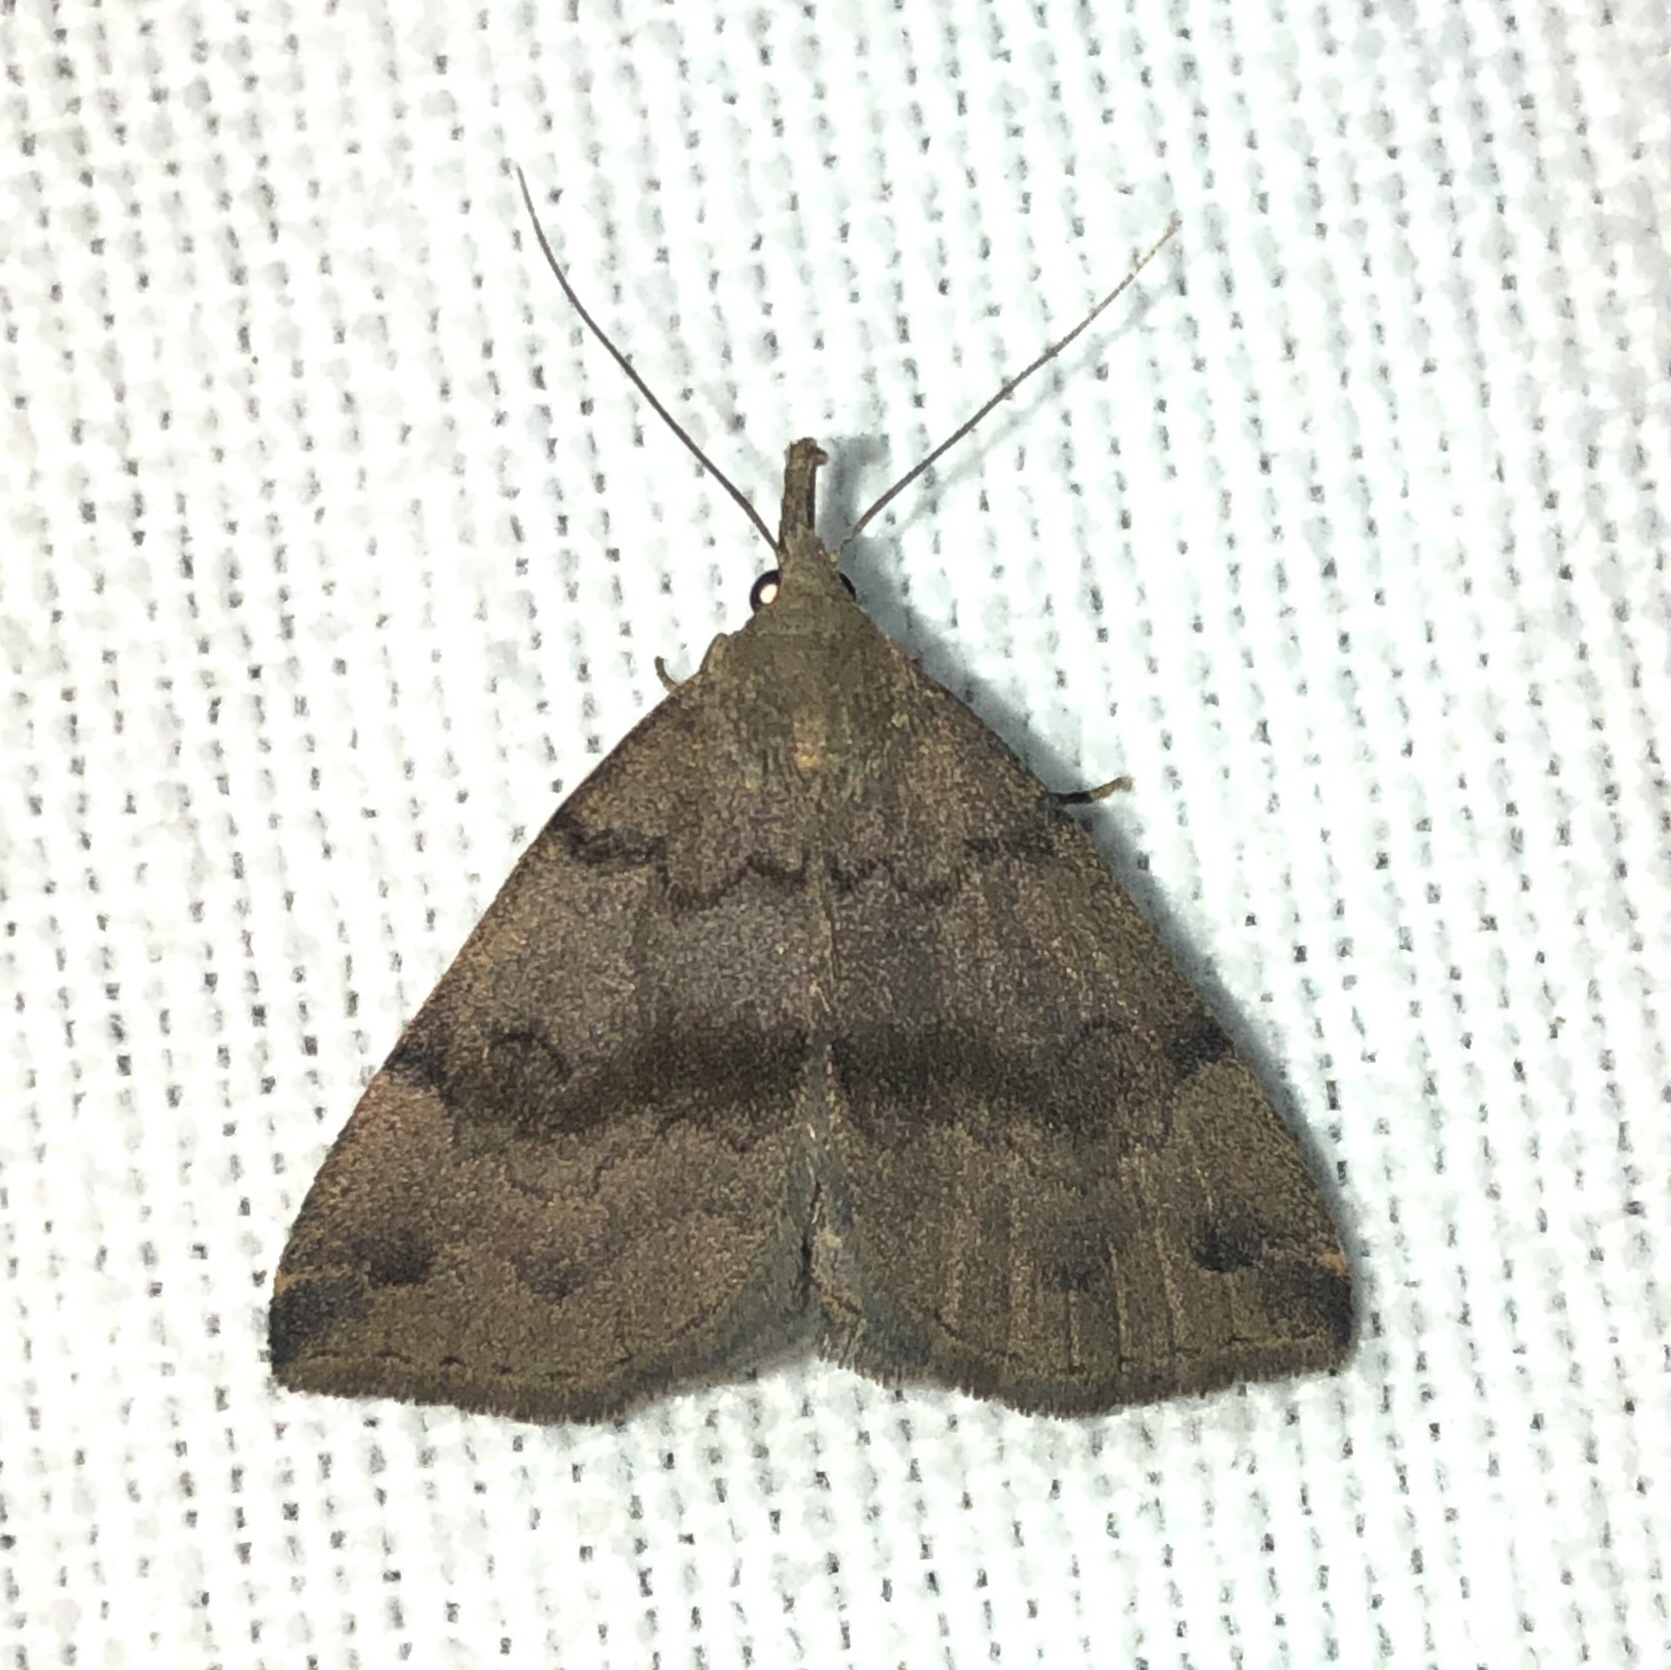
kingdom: Animalia
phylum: Arthropoda
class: Insecta
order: Lepidoptera
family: Erebidae
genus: Phalaenostola
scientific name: Phalaenostola eumelusalis
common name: Dark phalaenostola moth
